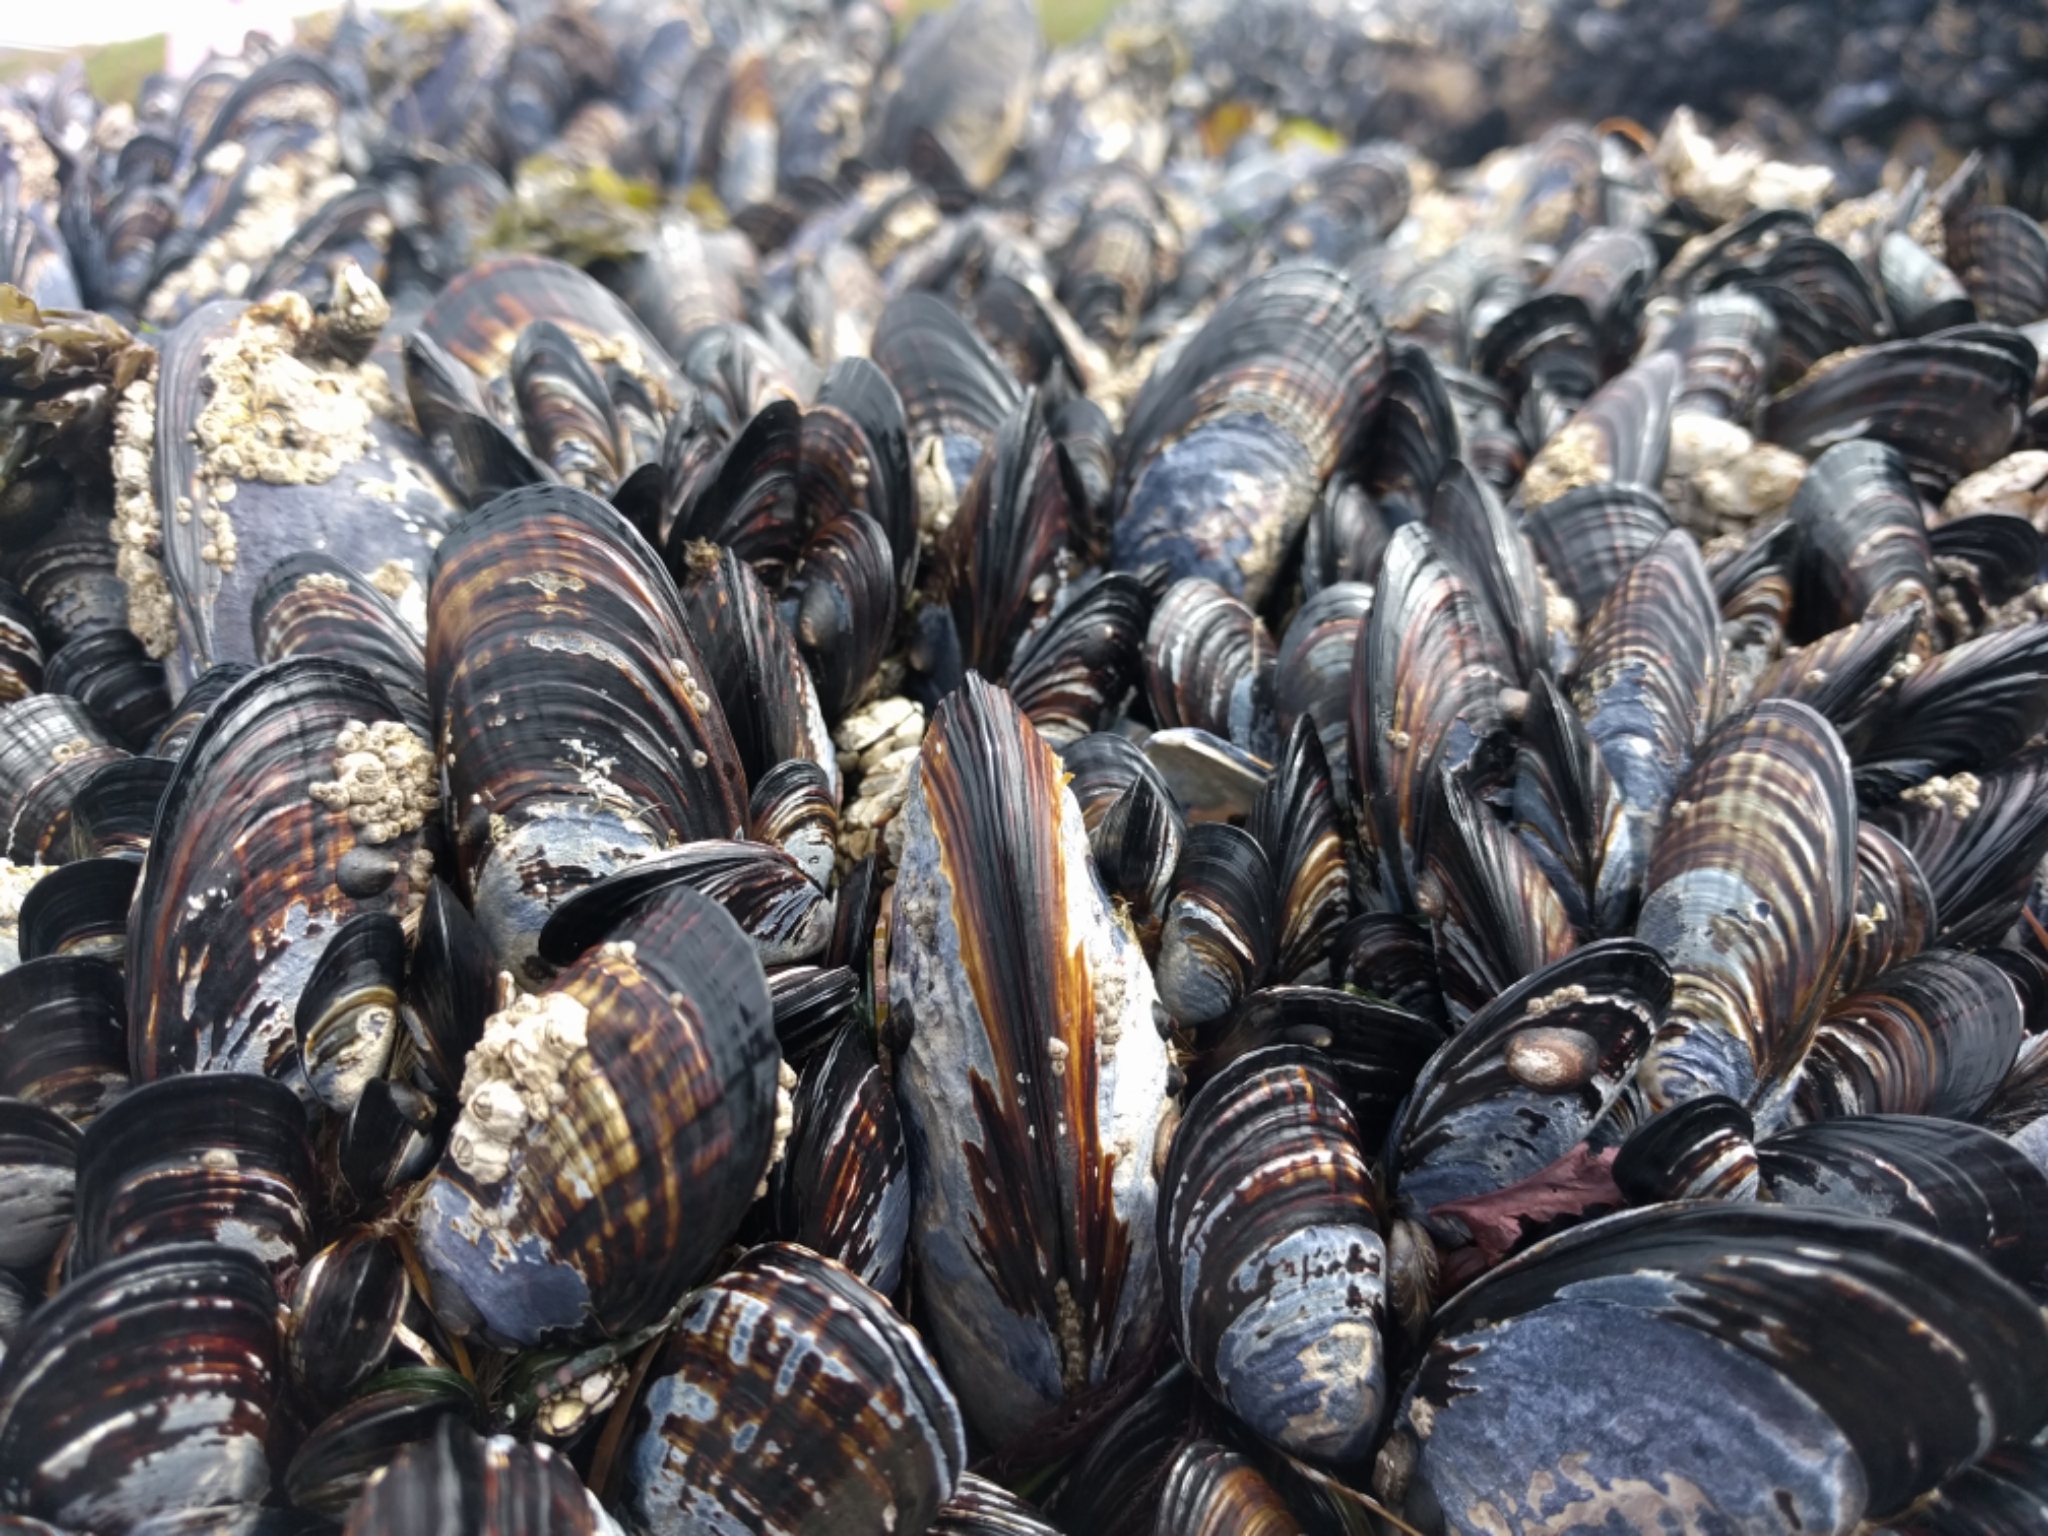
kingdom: Animalia
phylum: Mollusca
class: Bivalvia
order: Mytilida
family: Mytilidae
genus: Mytilus
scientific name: Mytilus californianus
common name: California mussel
